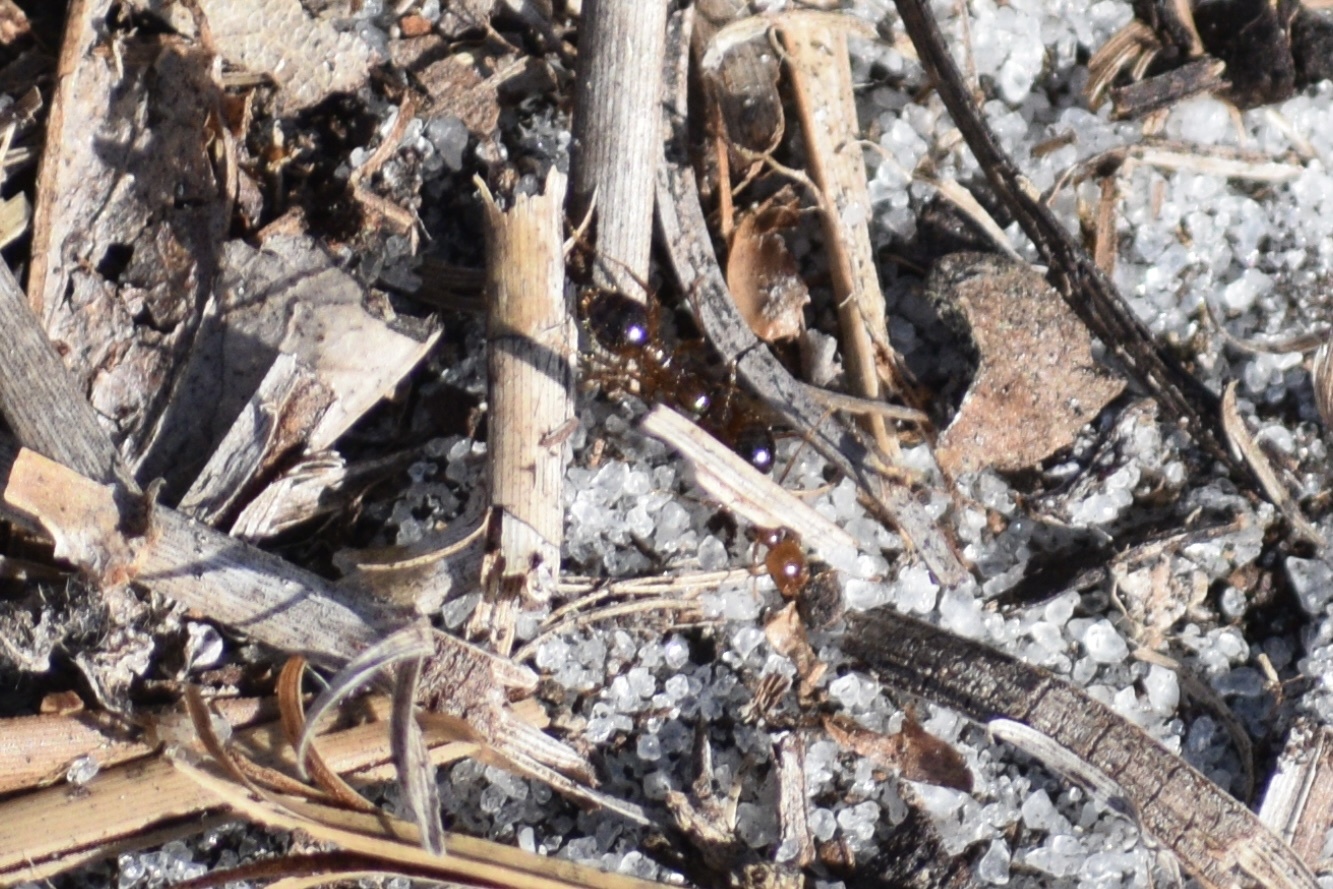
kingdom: Animalia
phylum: Arthropoda
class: Insecta
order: Hymenoptera
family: Formicidae
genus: Solenopsis
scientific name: Solenopsis invicta
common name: Red imported fire ant
